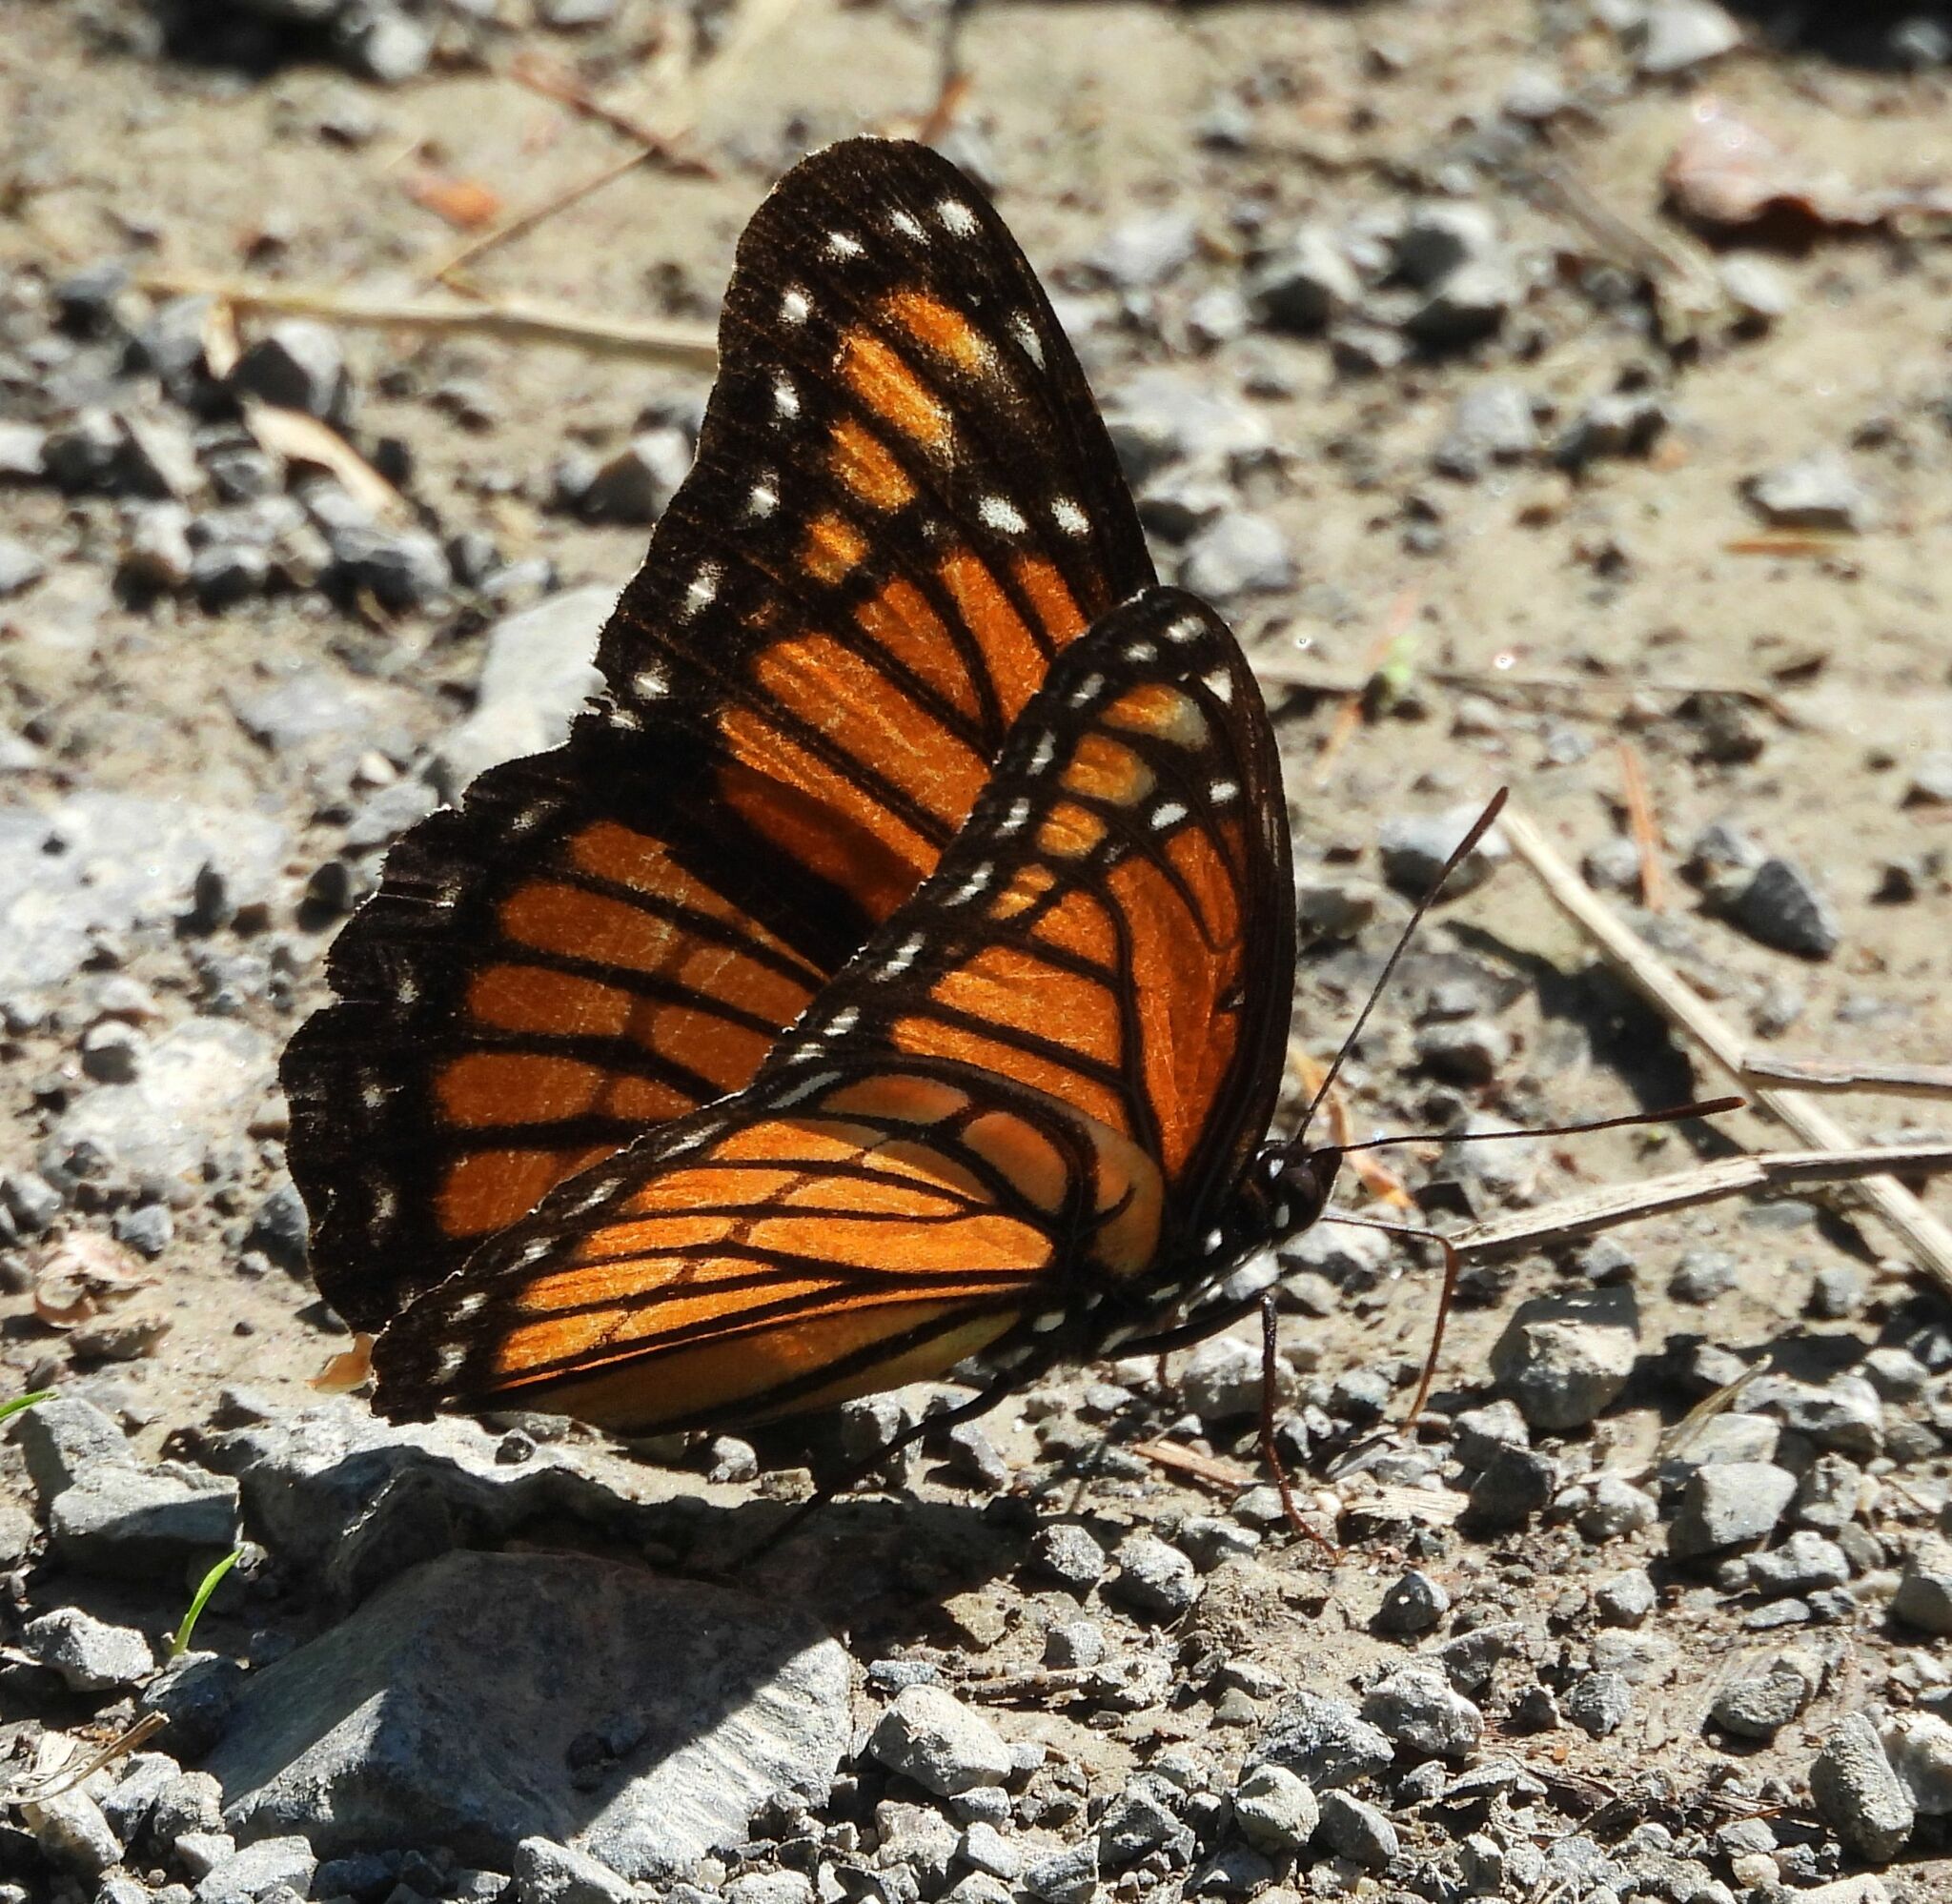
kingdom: Animalia
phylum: Arthropoda
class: Insecta
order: Lepidoptera
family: Nymphalidae
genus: Limenitis
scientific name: Limenitis archippus
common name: Viceroy
